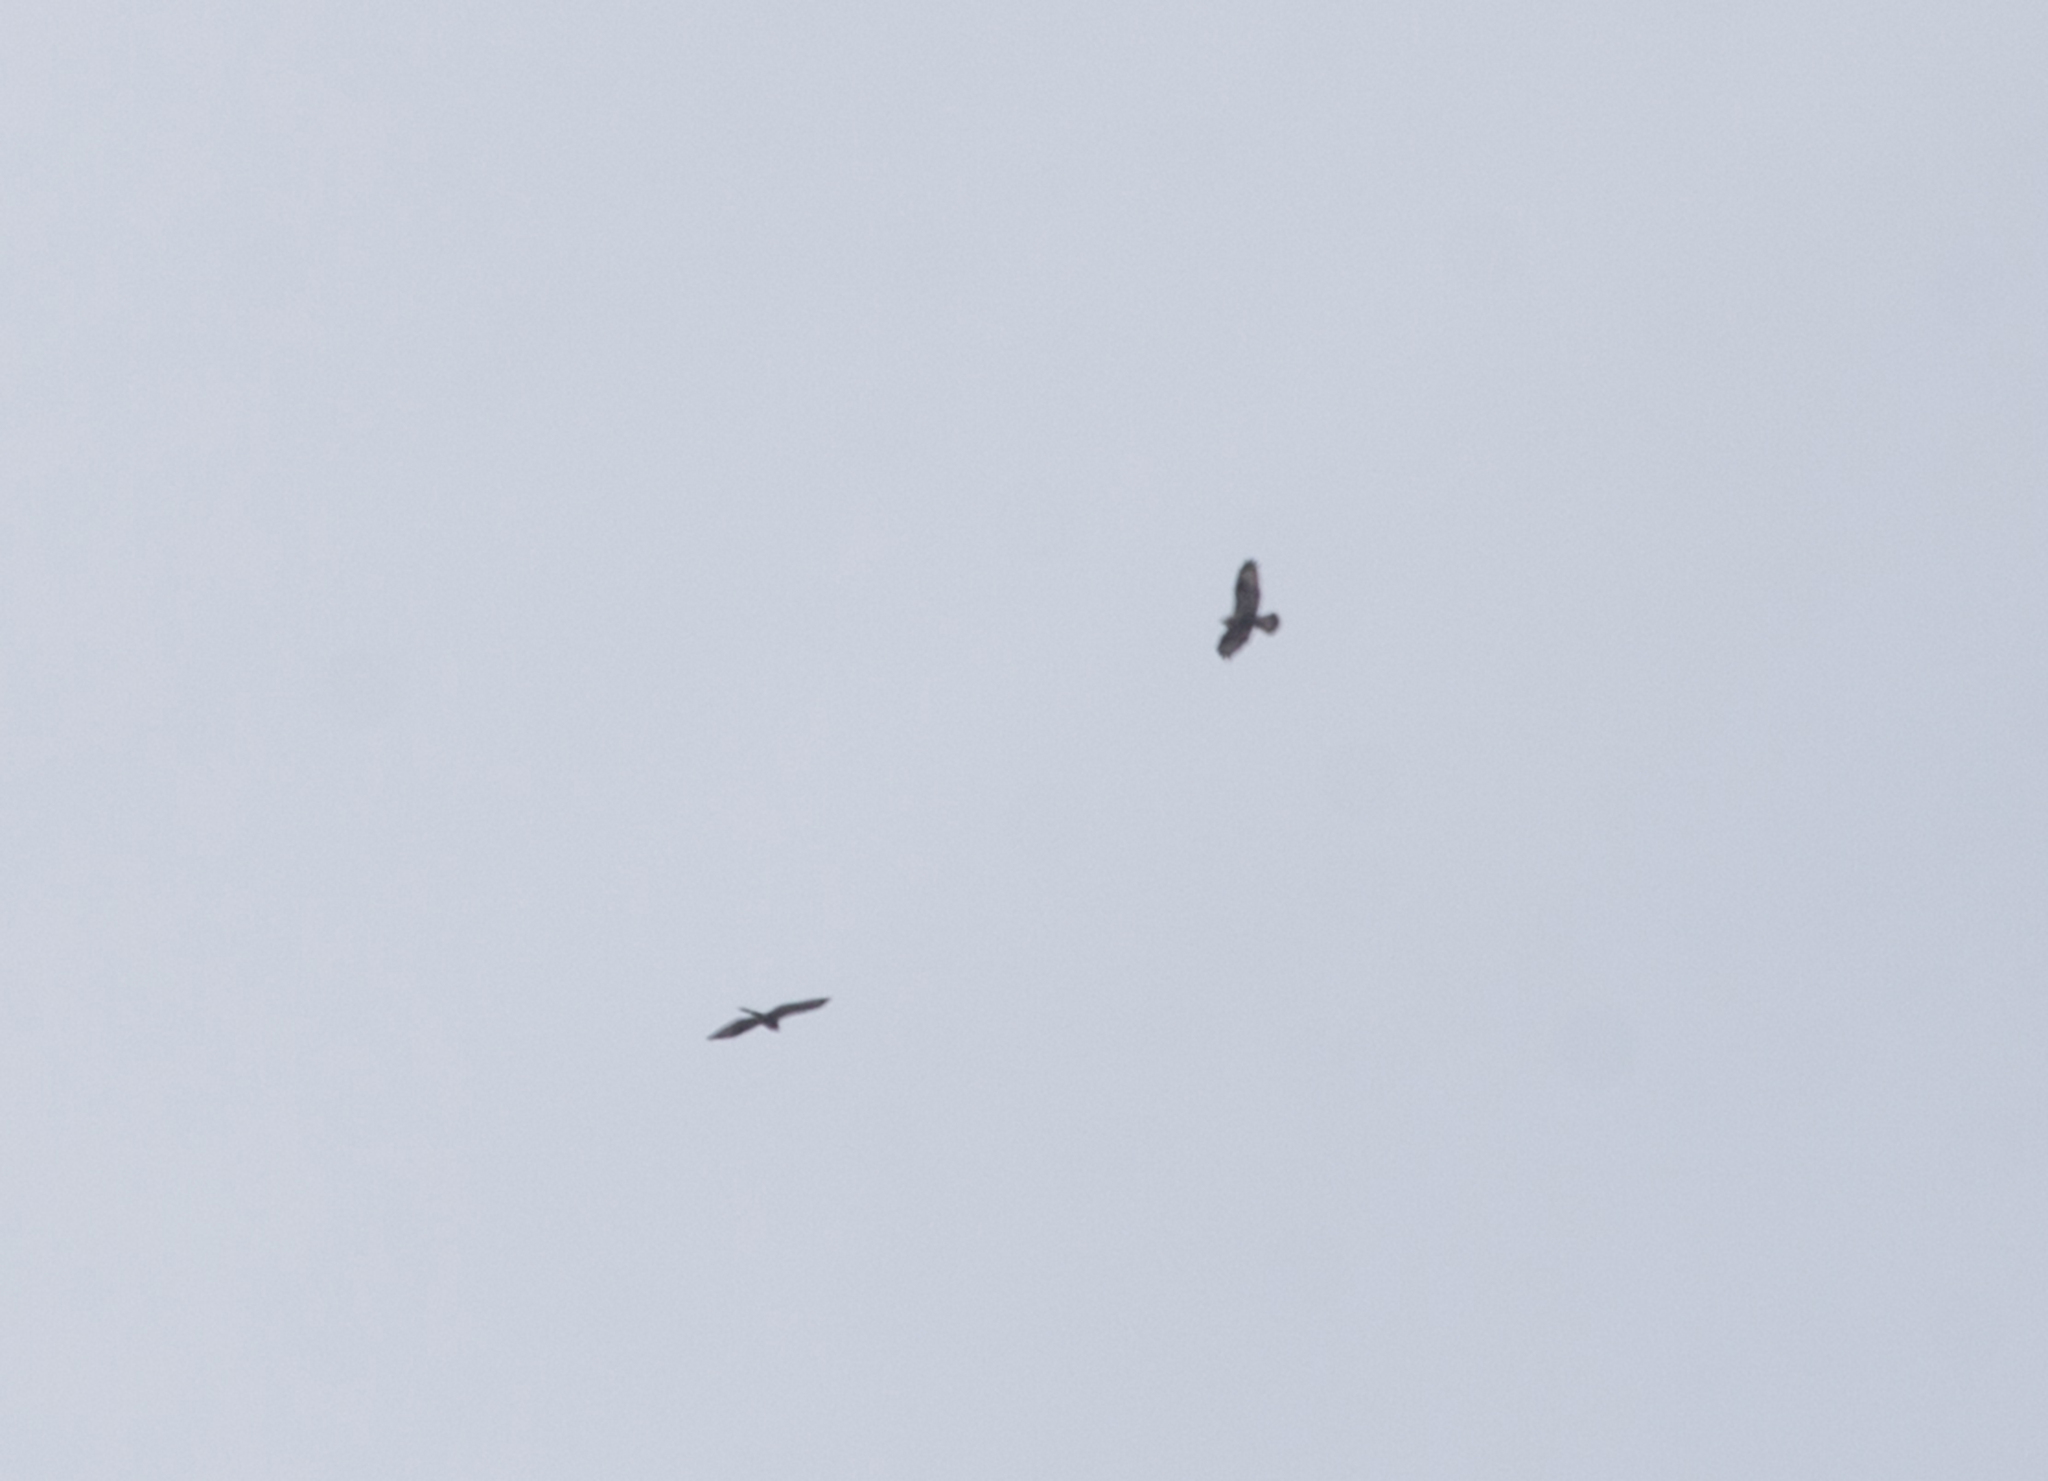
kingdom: Animalia
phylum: Chordata
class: Aves
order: Accipitriformes
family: Accipitridae
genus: Buteo
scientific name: Buteo buteo
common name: Common buzzard
